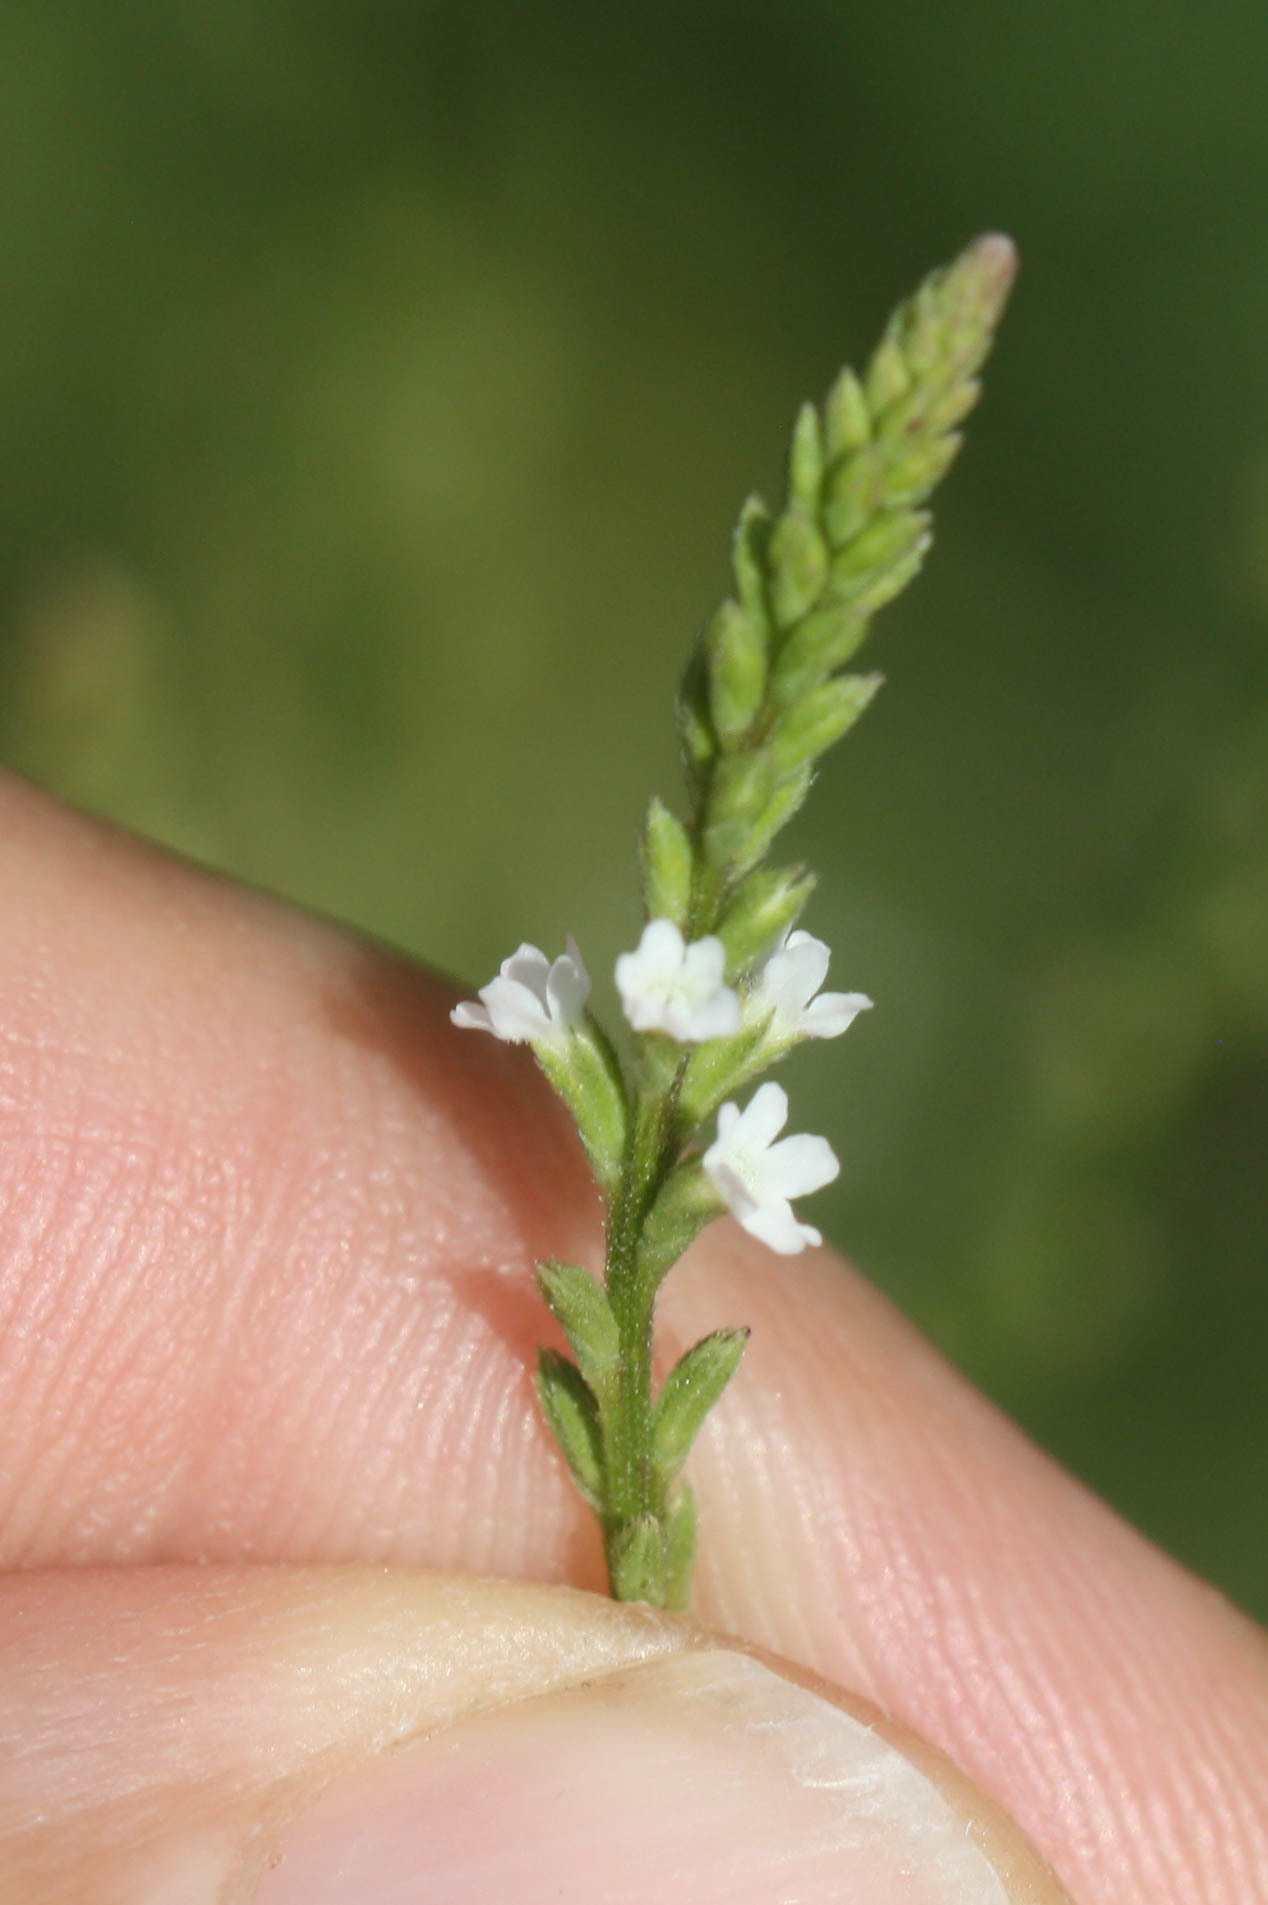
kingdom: Plantae
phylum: Tracheophyta
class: Magnoliopsida
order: Lamiales
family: Verbenaceae
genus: Verbena
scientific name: Verbena urticifolia
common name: Nettle-leaved vervain
